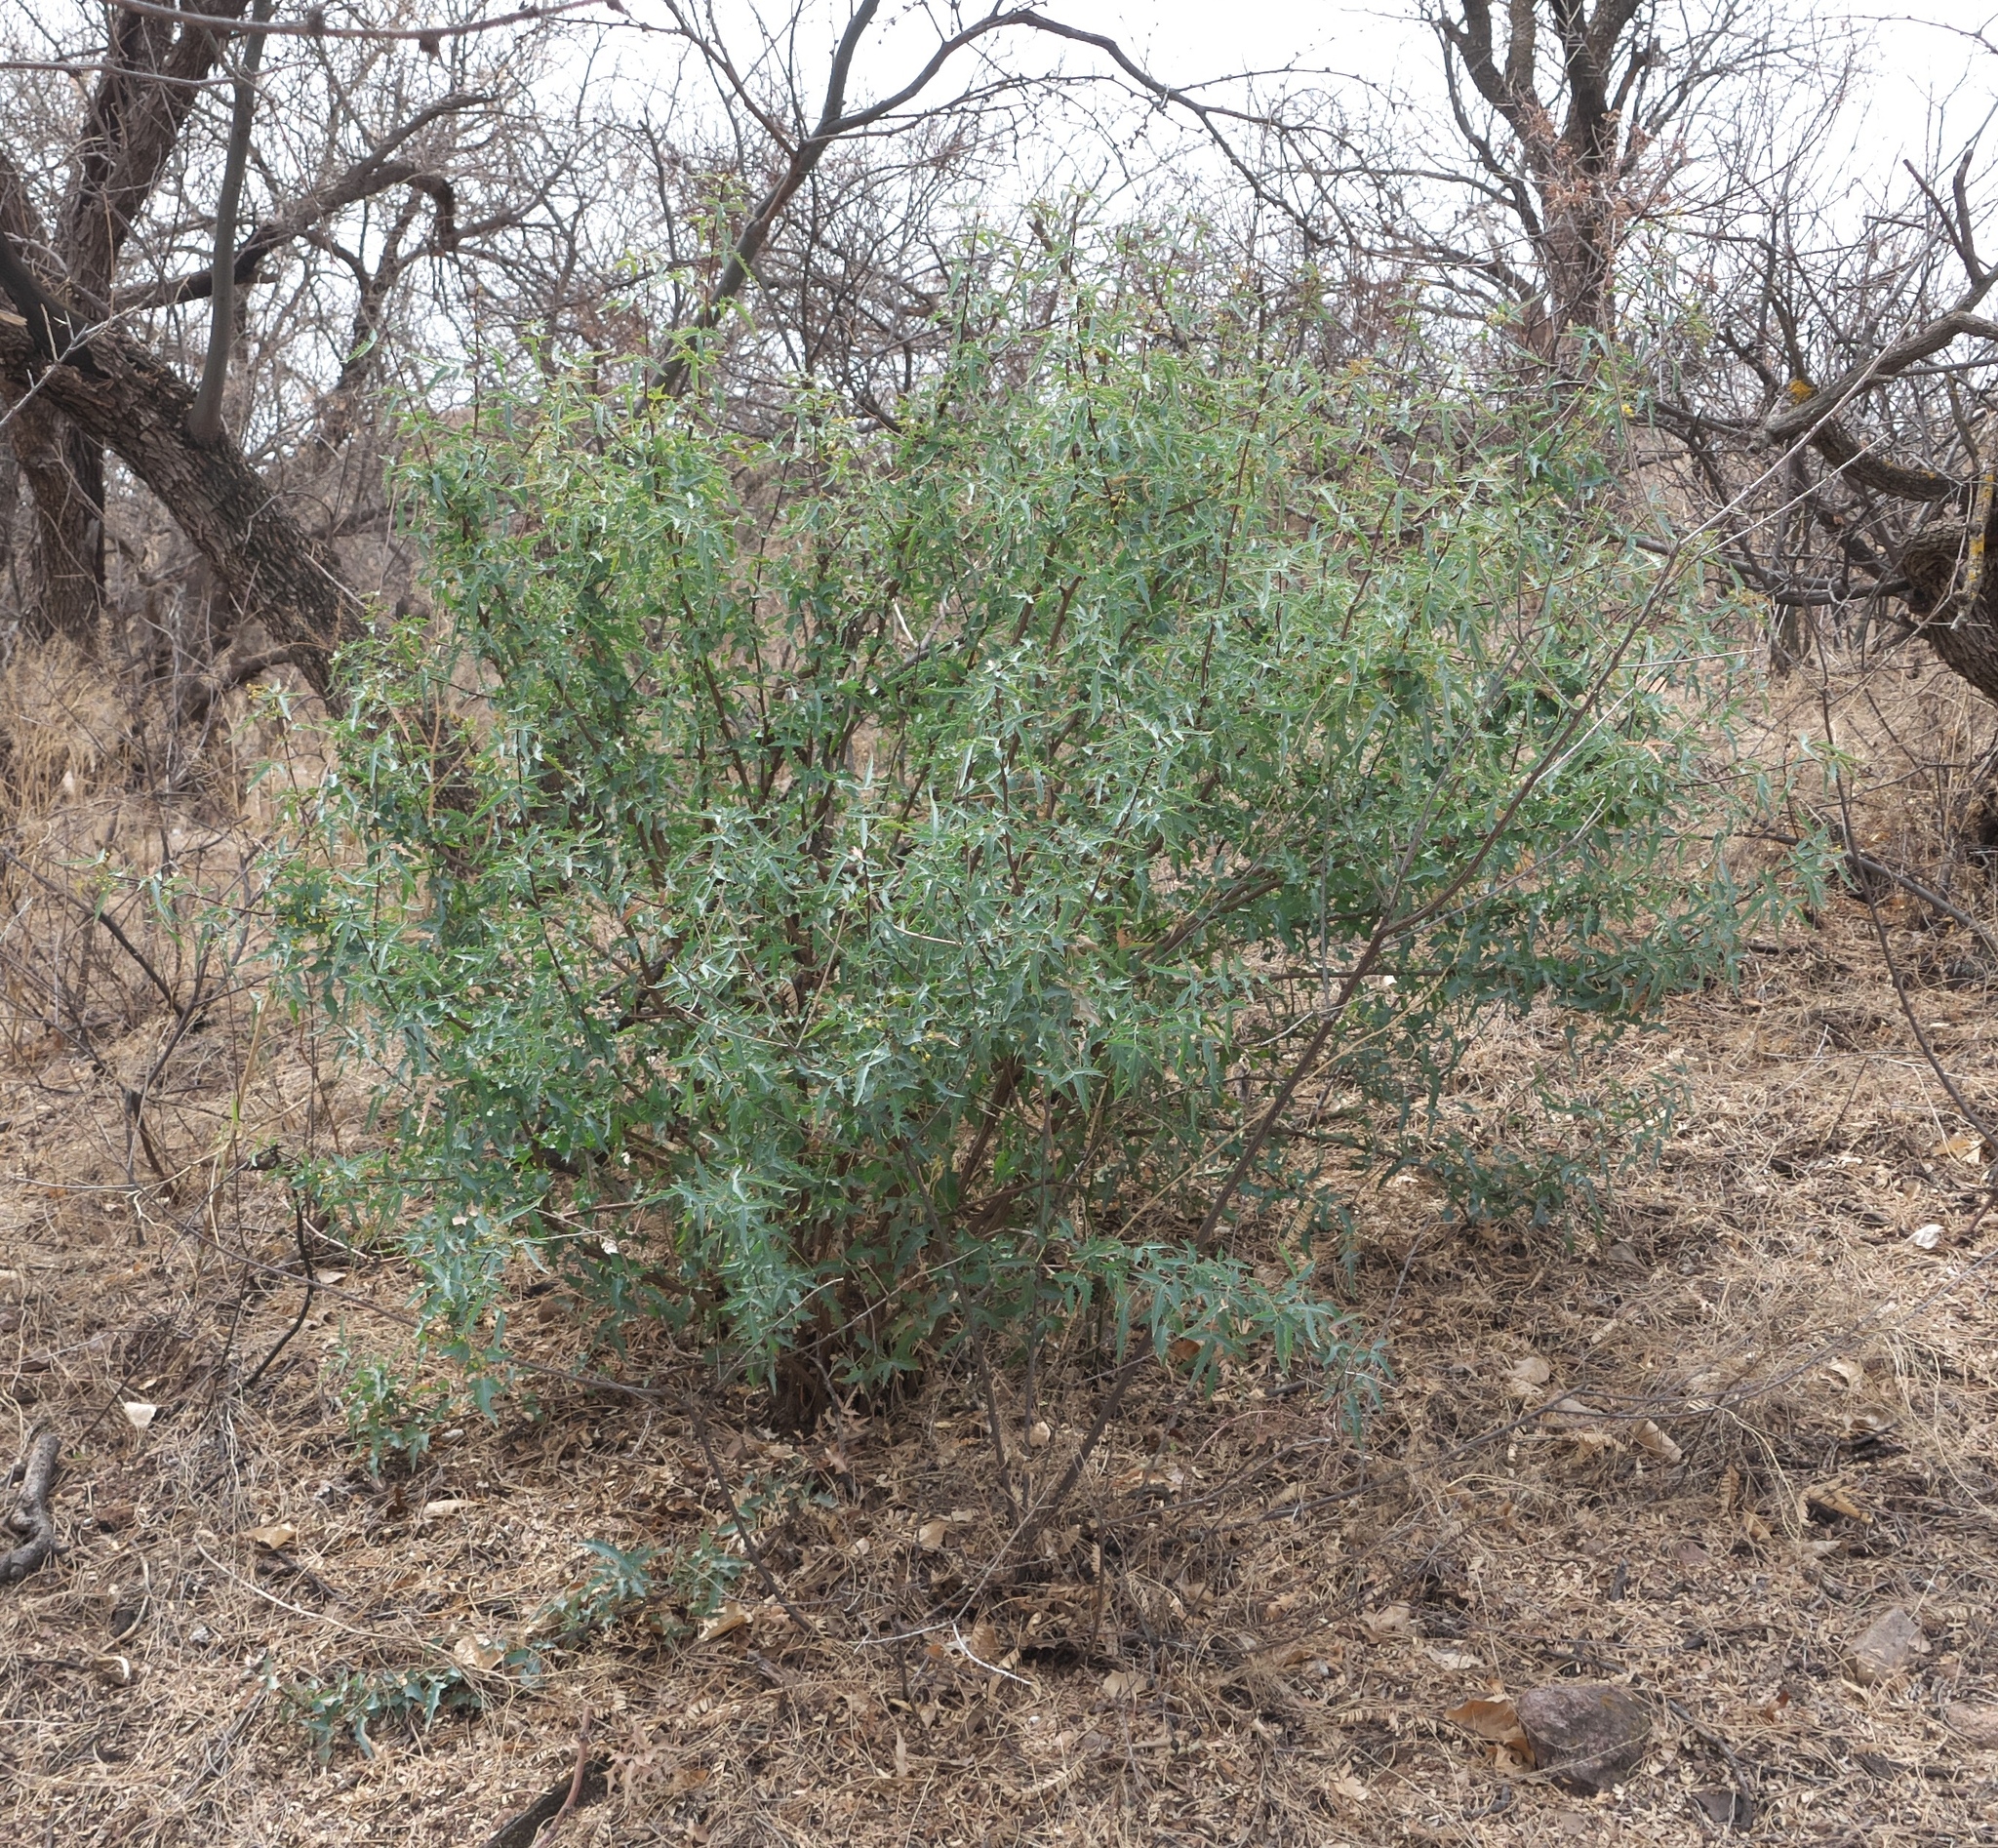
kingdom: Plantae
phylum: Tracheophyta
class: Magnoliopsida
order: Ranunculales
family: Berberidaceae
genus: Alloberberis
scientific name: Alloberberis haematocarpa
